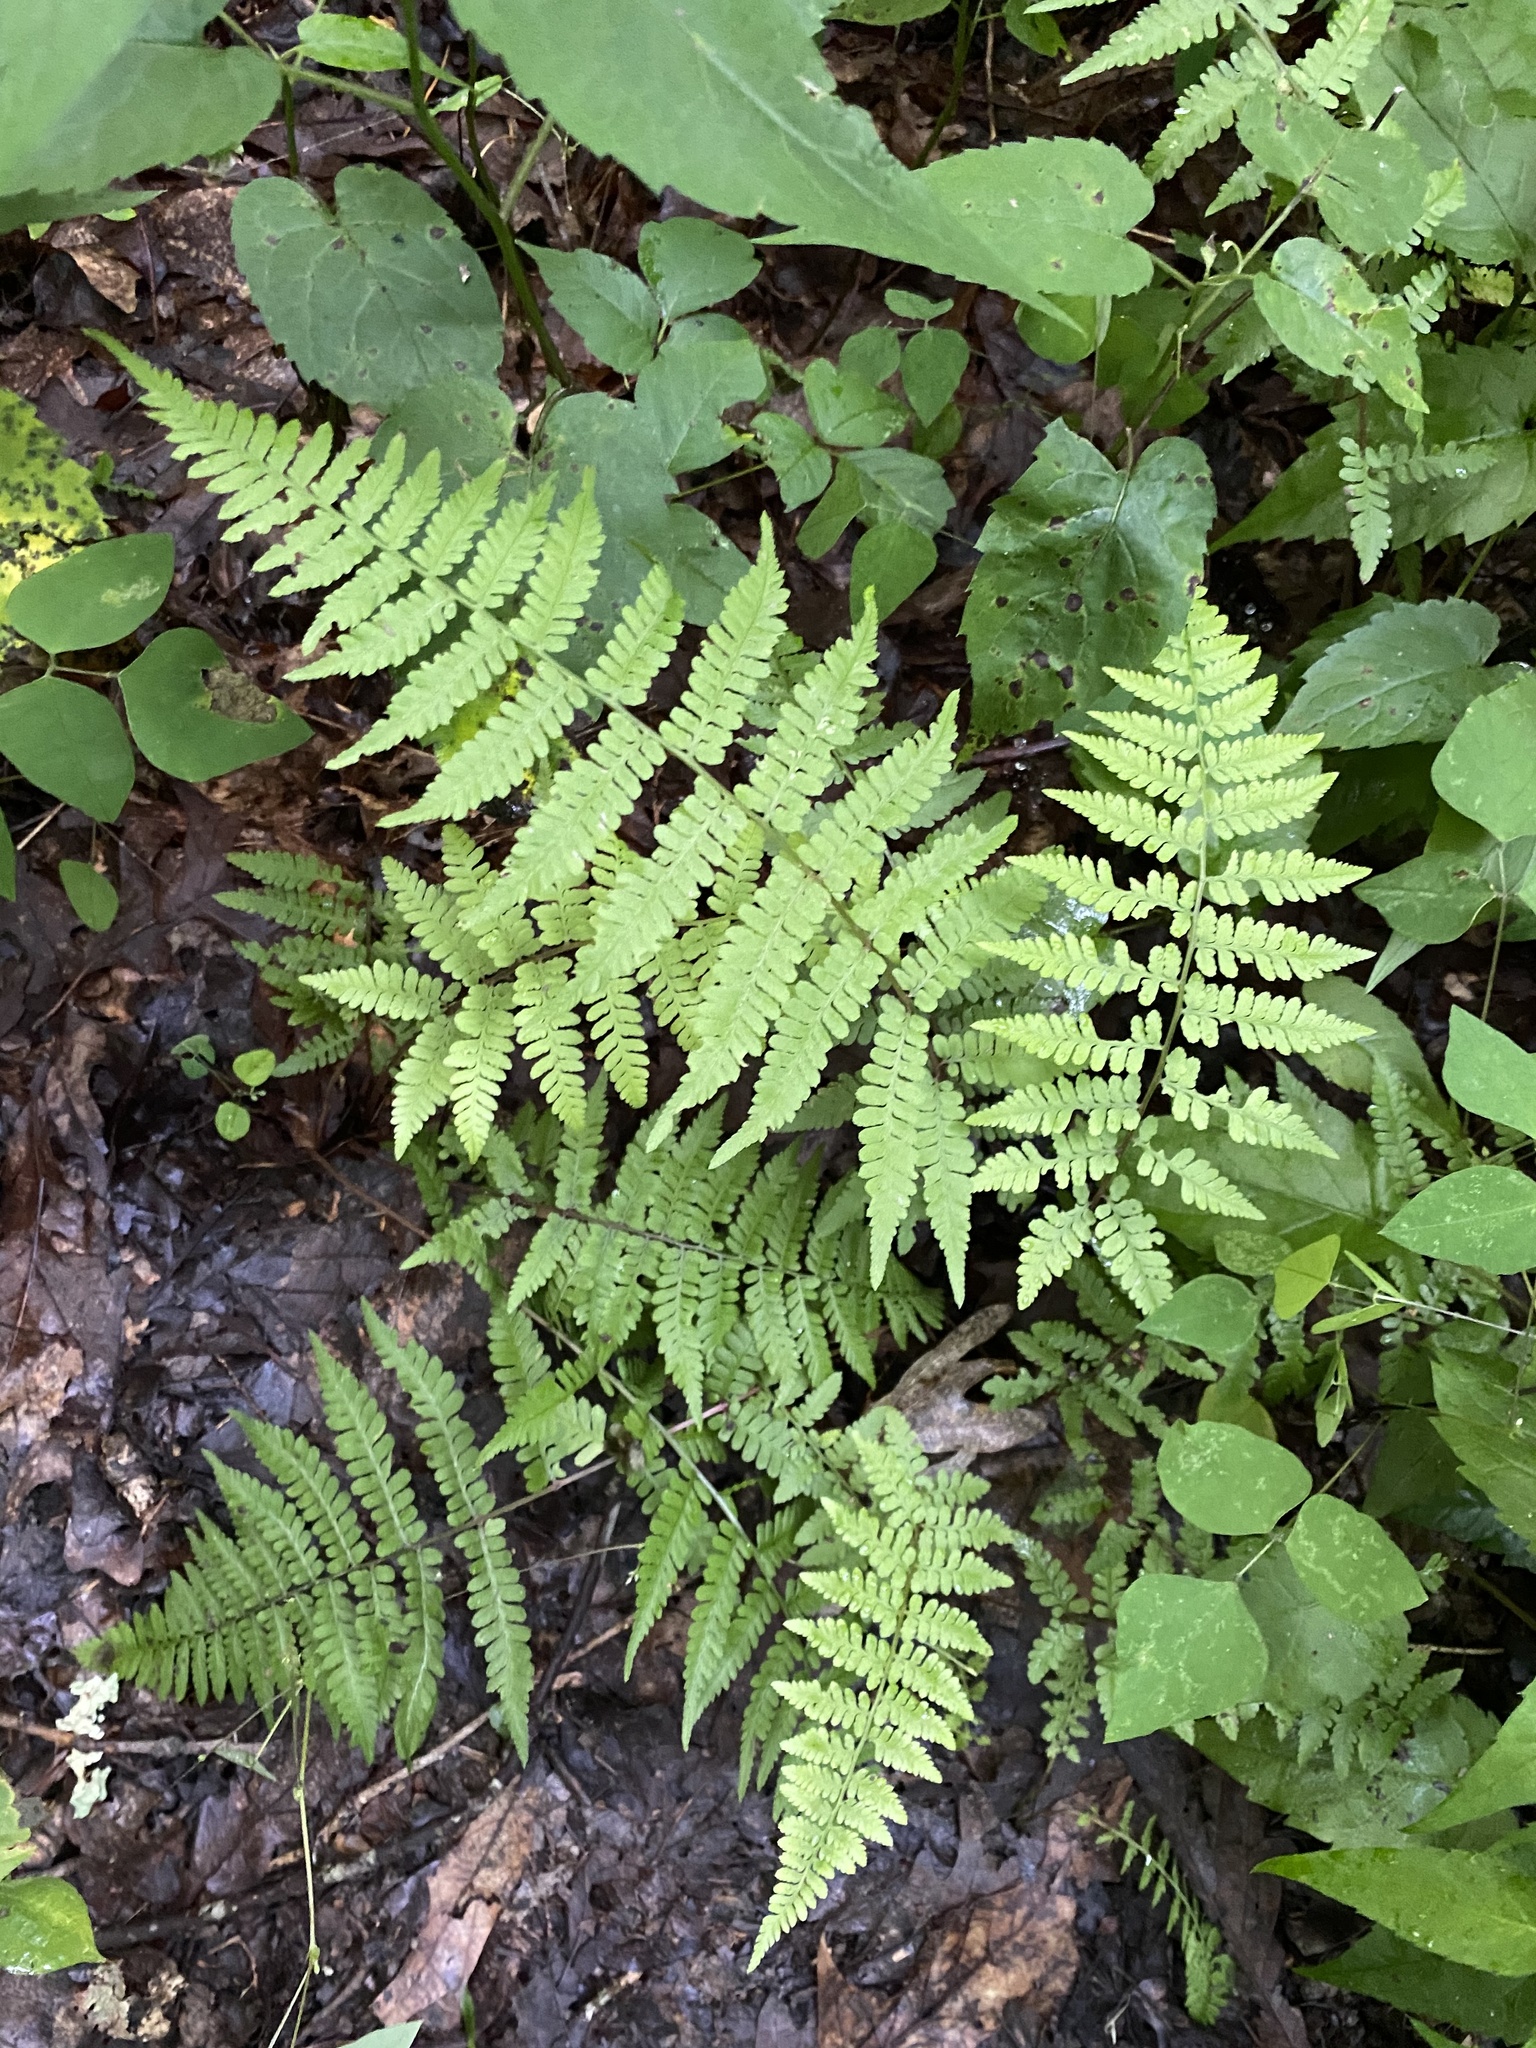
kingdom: Plantae
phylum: Tracheophyta
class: Polypodiopsida
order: Polypodiales
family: Athyriaceae
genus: Athyrium
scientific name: Athyrium asplenioides
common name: Southern lady fern
